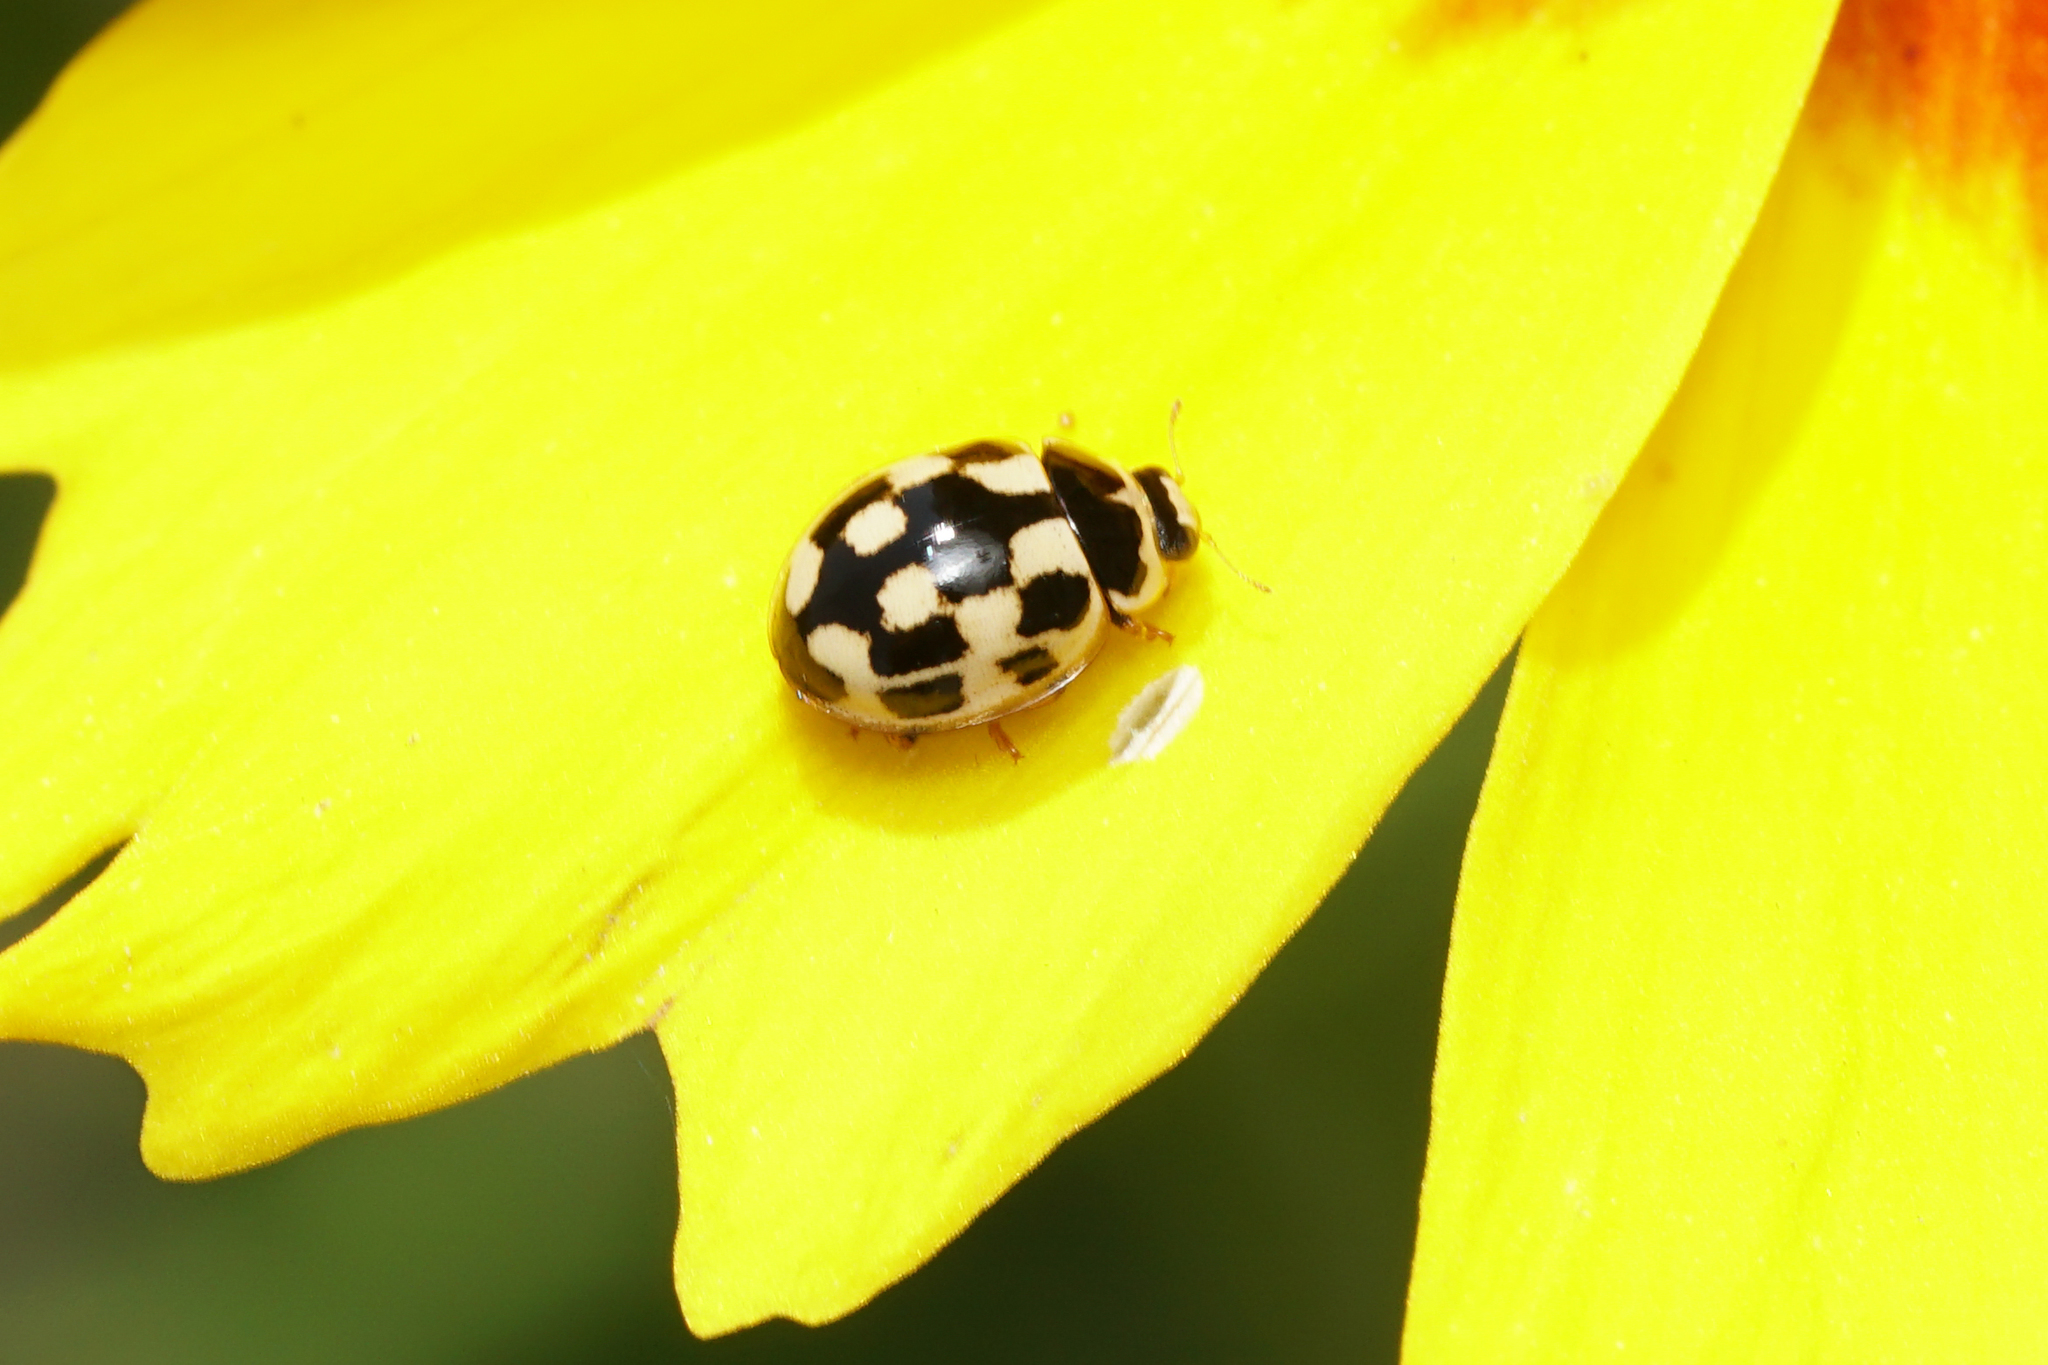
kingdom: Animalia
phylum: Arthropoda
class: Insecta
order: Coleoptera
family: Coccinellidae
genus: Propylaea
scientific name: Propylaea quatuordecimpunctata
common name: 14-spotted ladybird beetle
